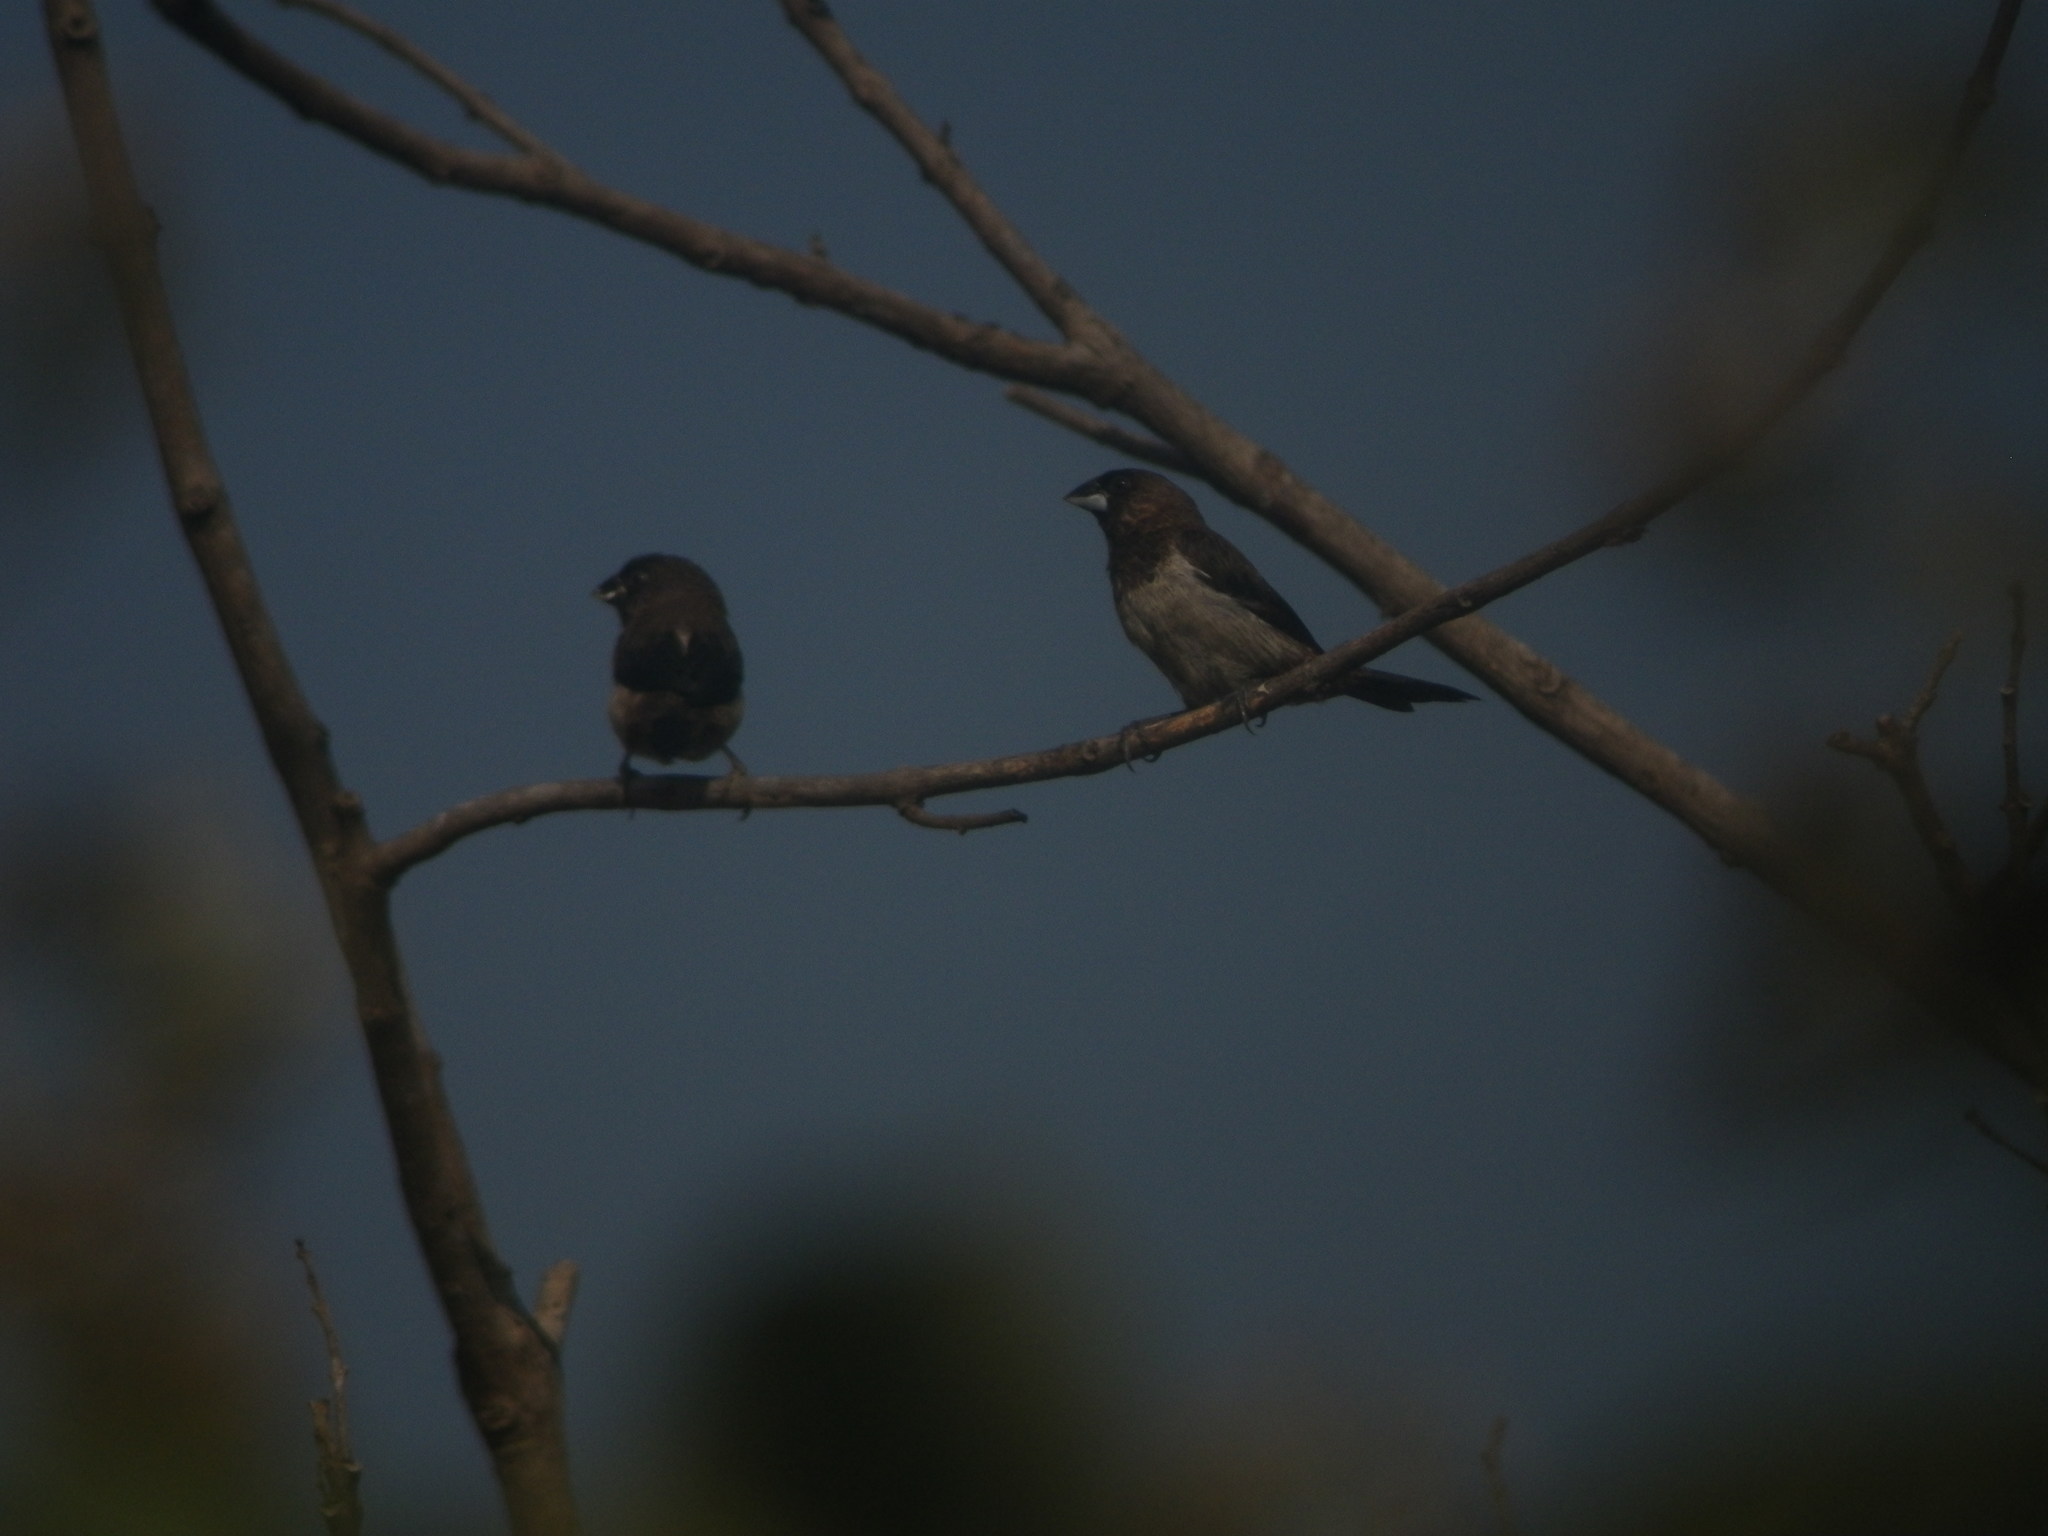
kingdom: Animalia
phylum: Chordata
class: Aves
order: Passeriformes
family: Estrildidae
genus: Lonchura
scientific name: Lonchura striata
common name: White-rumped munia
